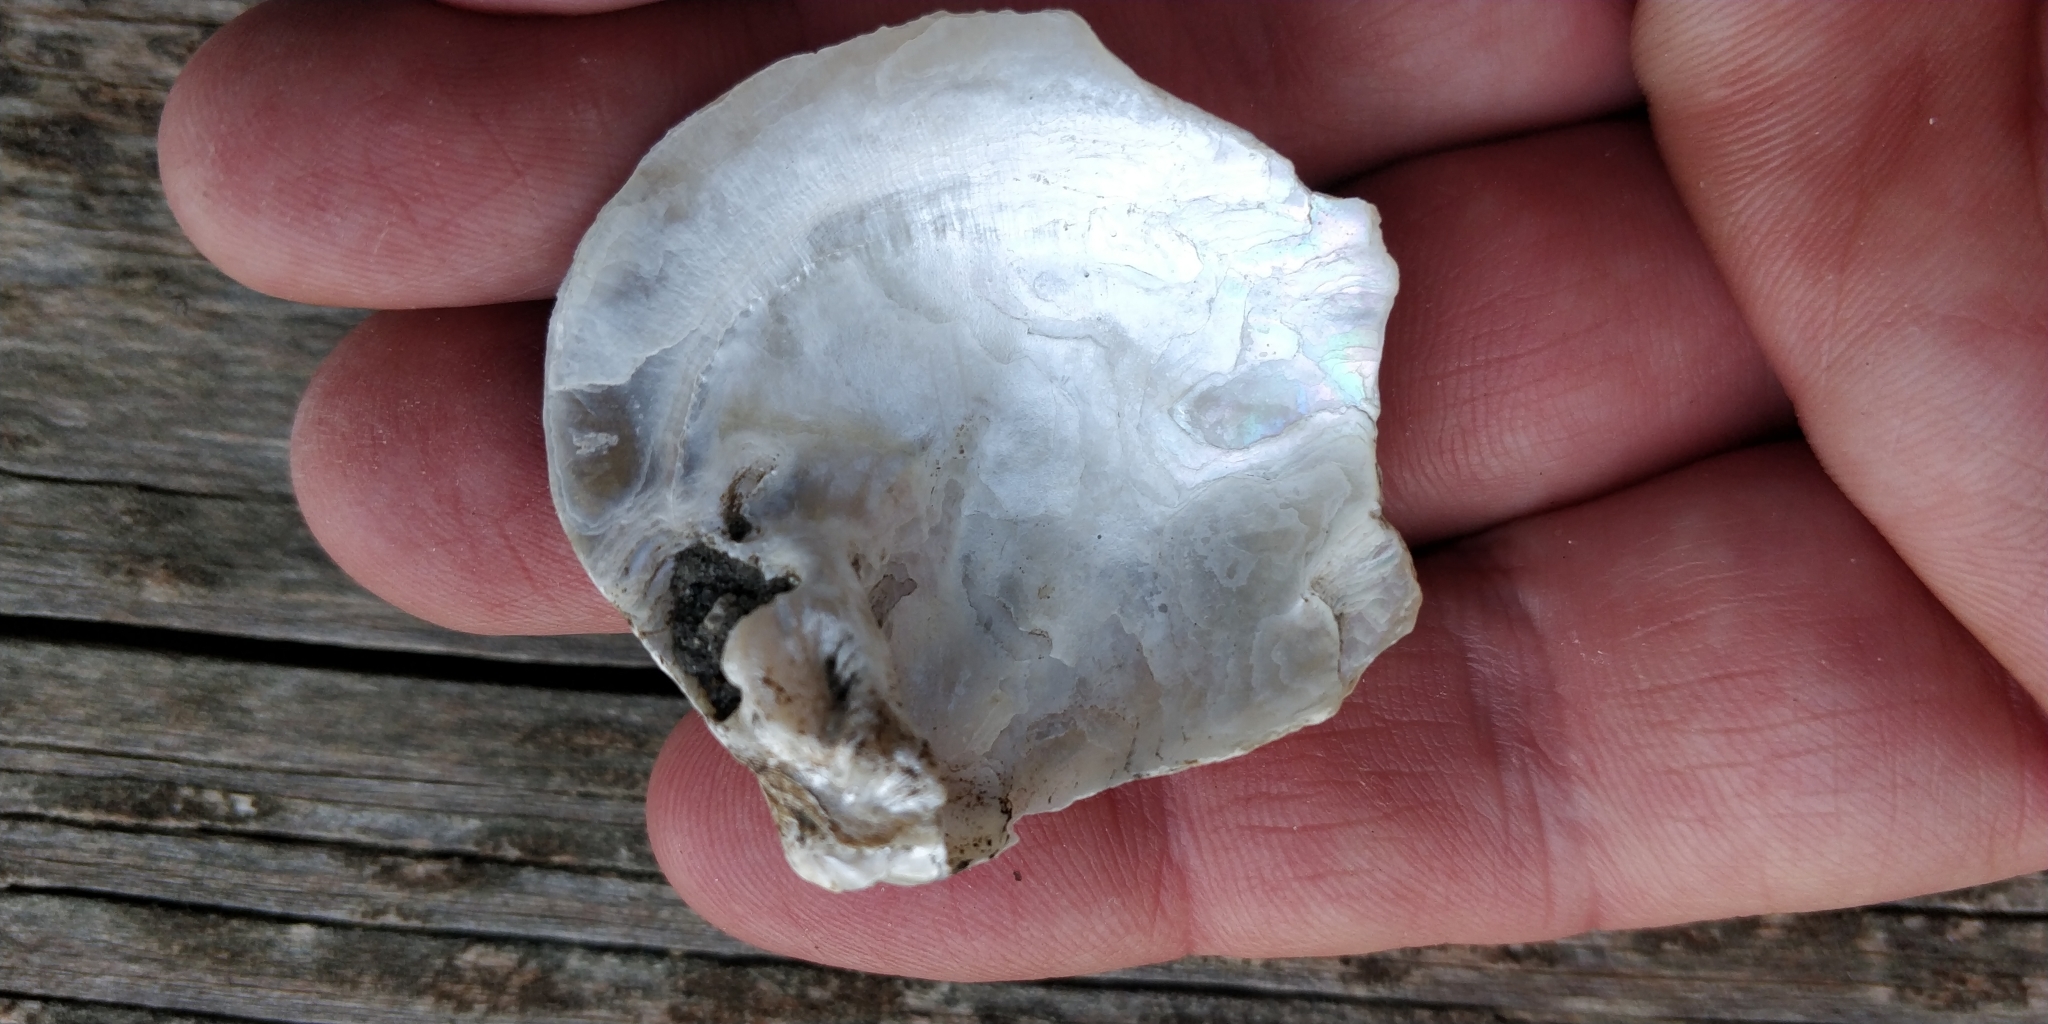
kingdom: Animalia
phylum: Mollusca
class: Bivalvia
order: Unionida
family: Unionidae
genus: Cyclonaias
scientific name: Cyclonaias pustulosa
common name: Pimpleback
